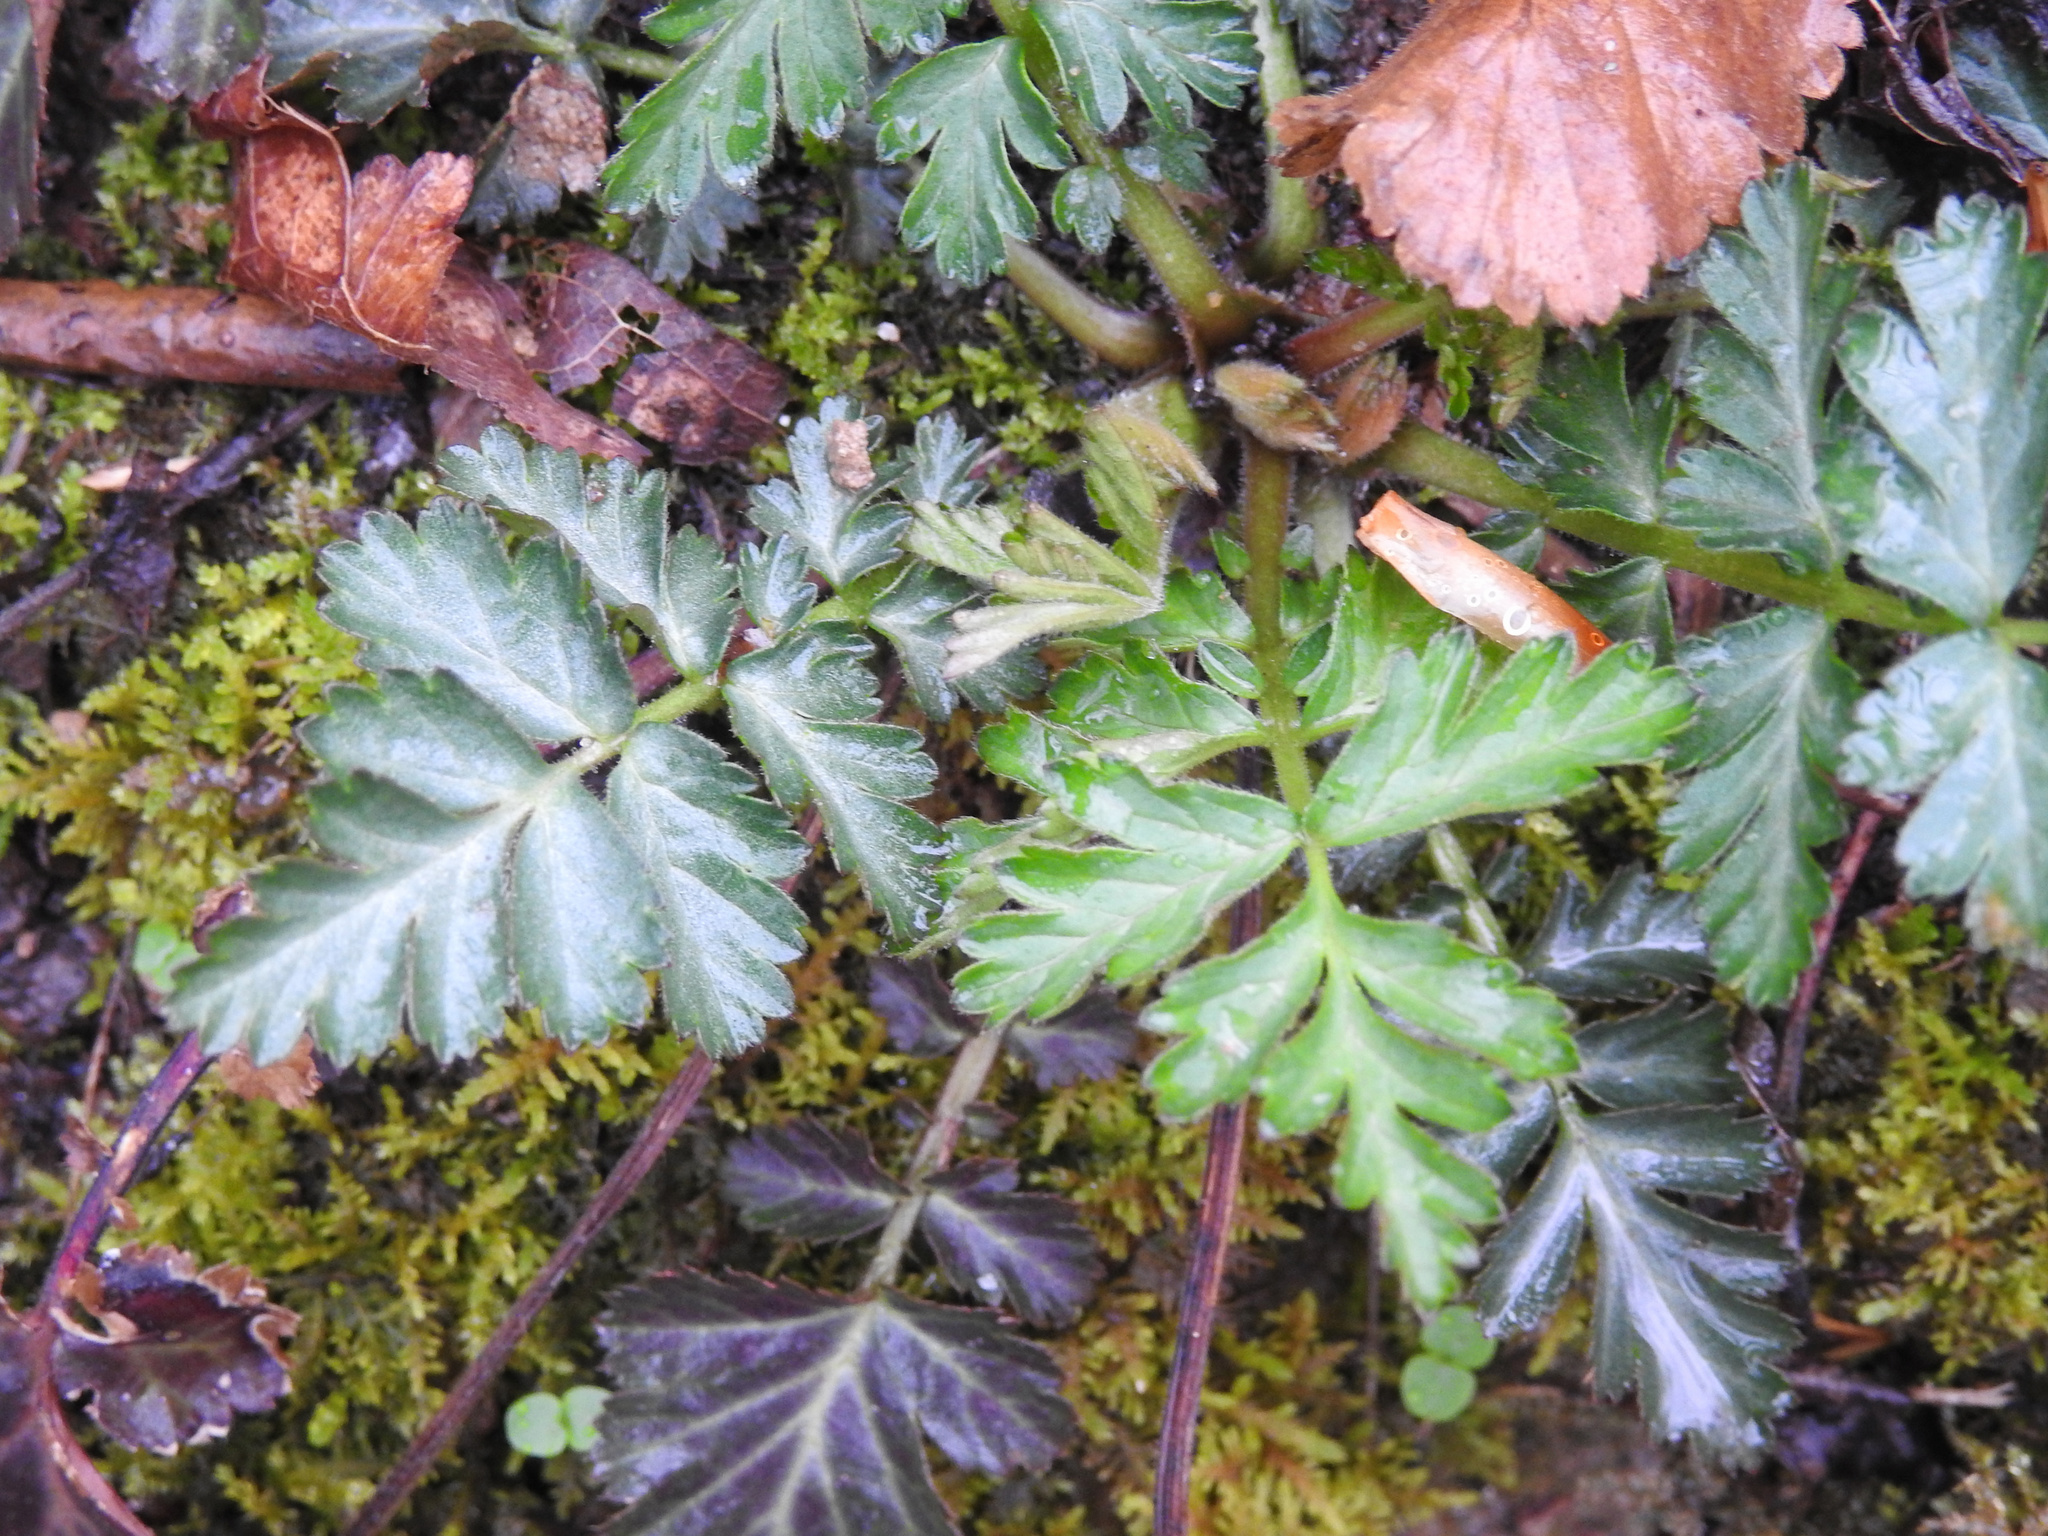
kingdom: Plantae
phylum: Tracheophyta
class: Magnoliopsida
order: Rosales
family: Rosaceae
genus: Geum
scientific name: Geum canadense
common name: White avens
